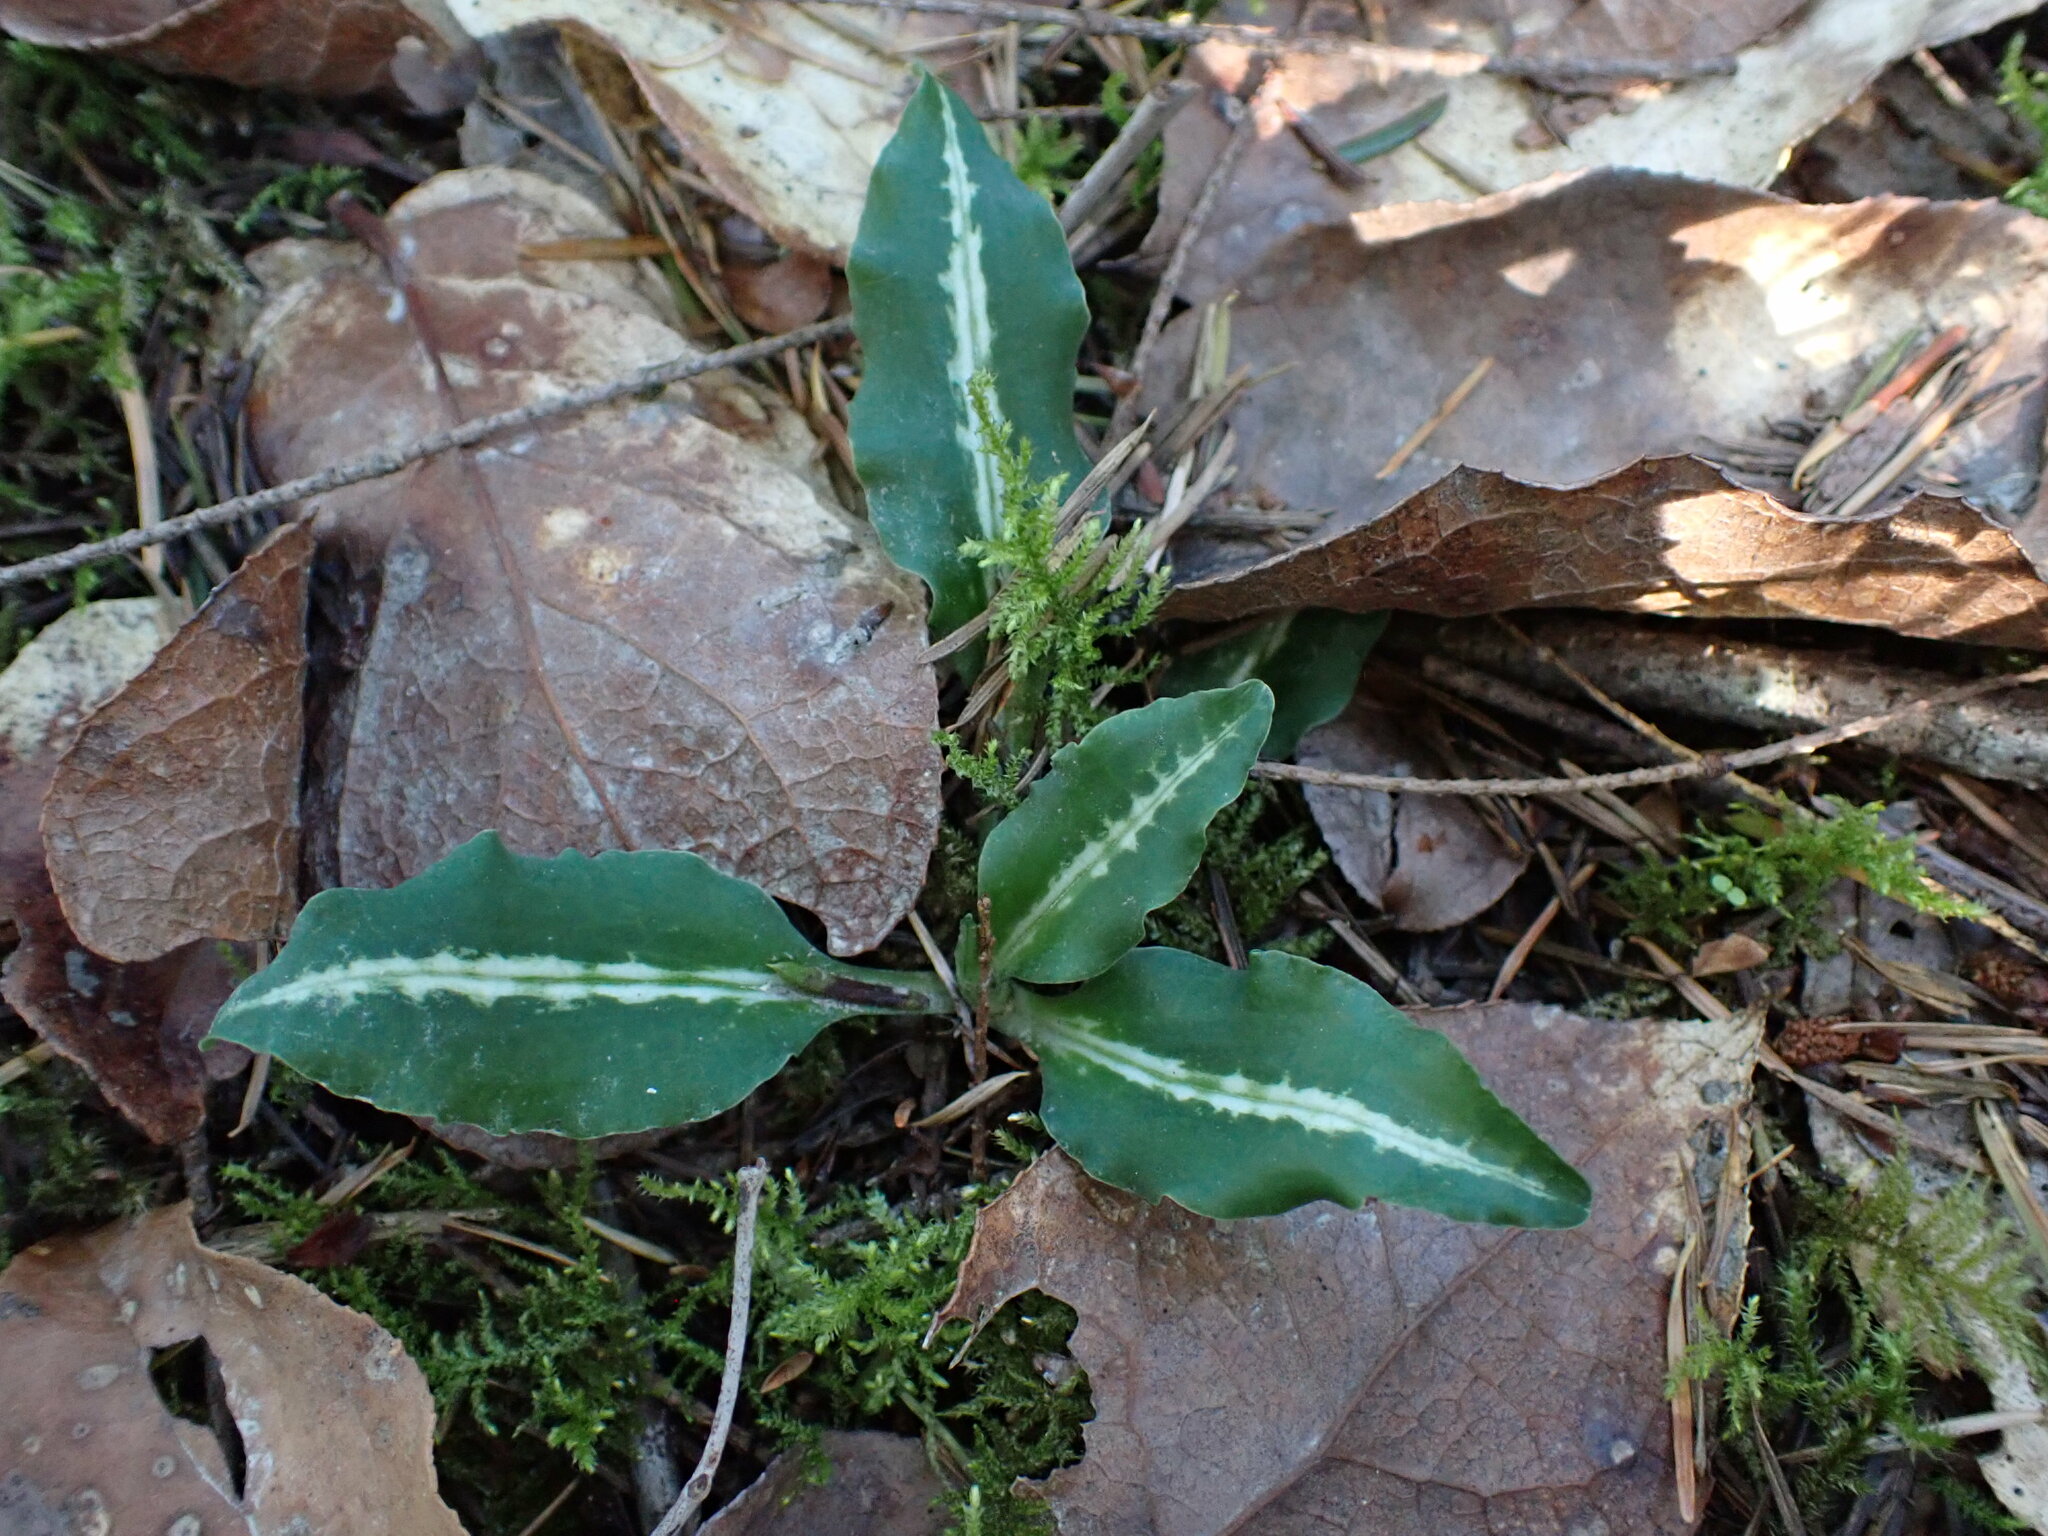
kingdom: Plantae
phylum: Tracheophyta
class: Liliopsida
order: Asparagales
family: Orchidaceae
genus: Goodyera
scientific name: Goodyera oblongifolia
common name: Giant rattlesnake-plantain
